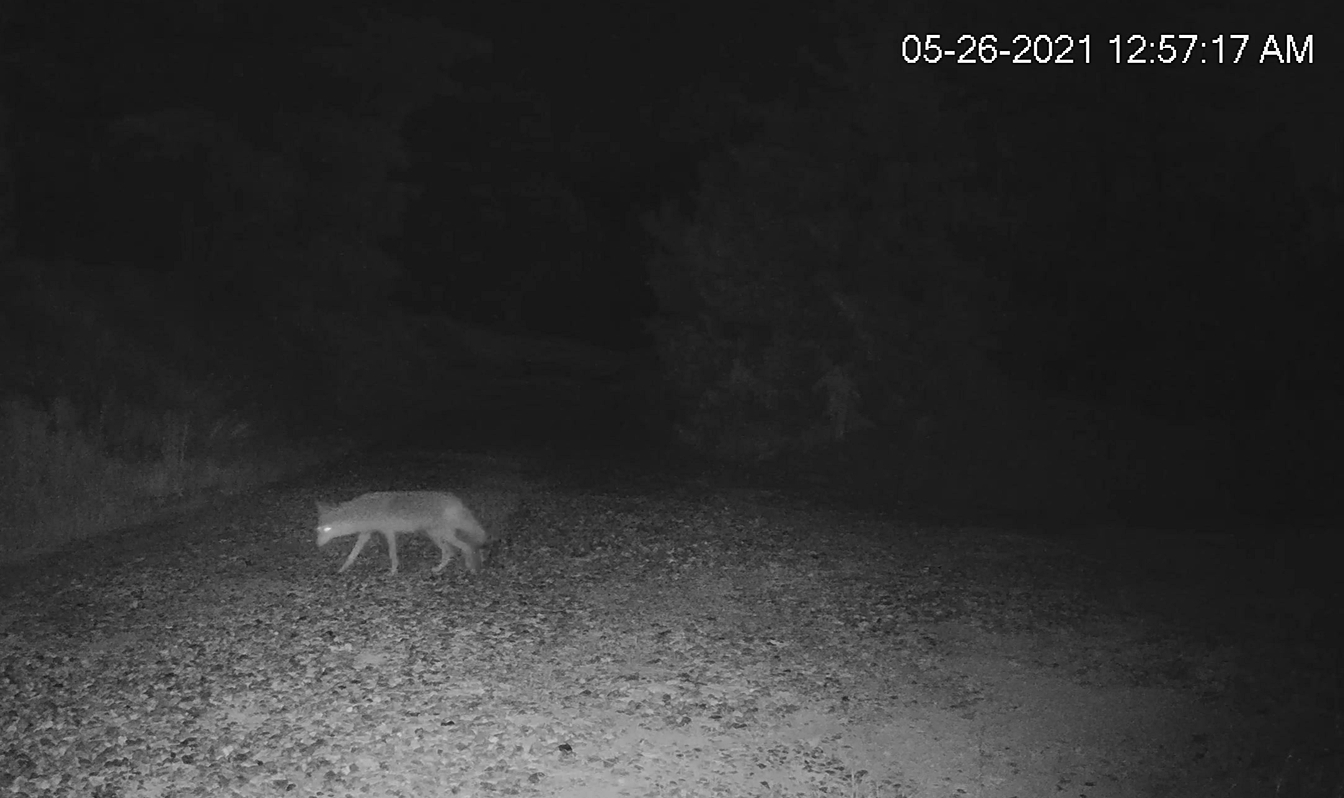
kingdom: Animalia
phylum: Chordata
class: Mammalia
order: Carnivora
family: Canidae
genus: Canis
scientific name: Canis latrans
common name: Coyote
